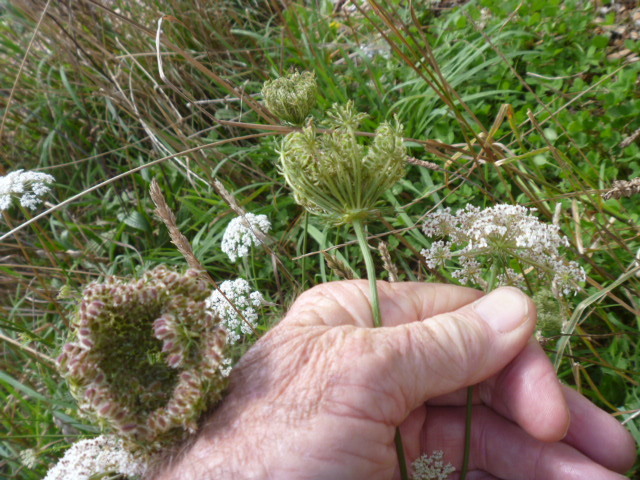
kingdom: Plantae
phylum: Tracheophyta
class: Magnoliopsida
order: Apiales
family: Apiaceae
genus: Daucus
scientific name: Daucus carota
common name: Wild carrot
